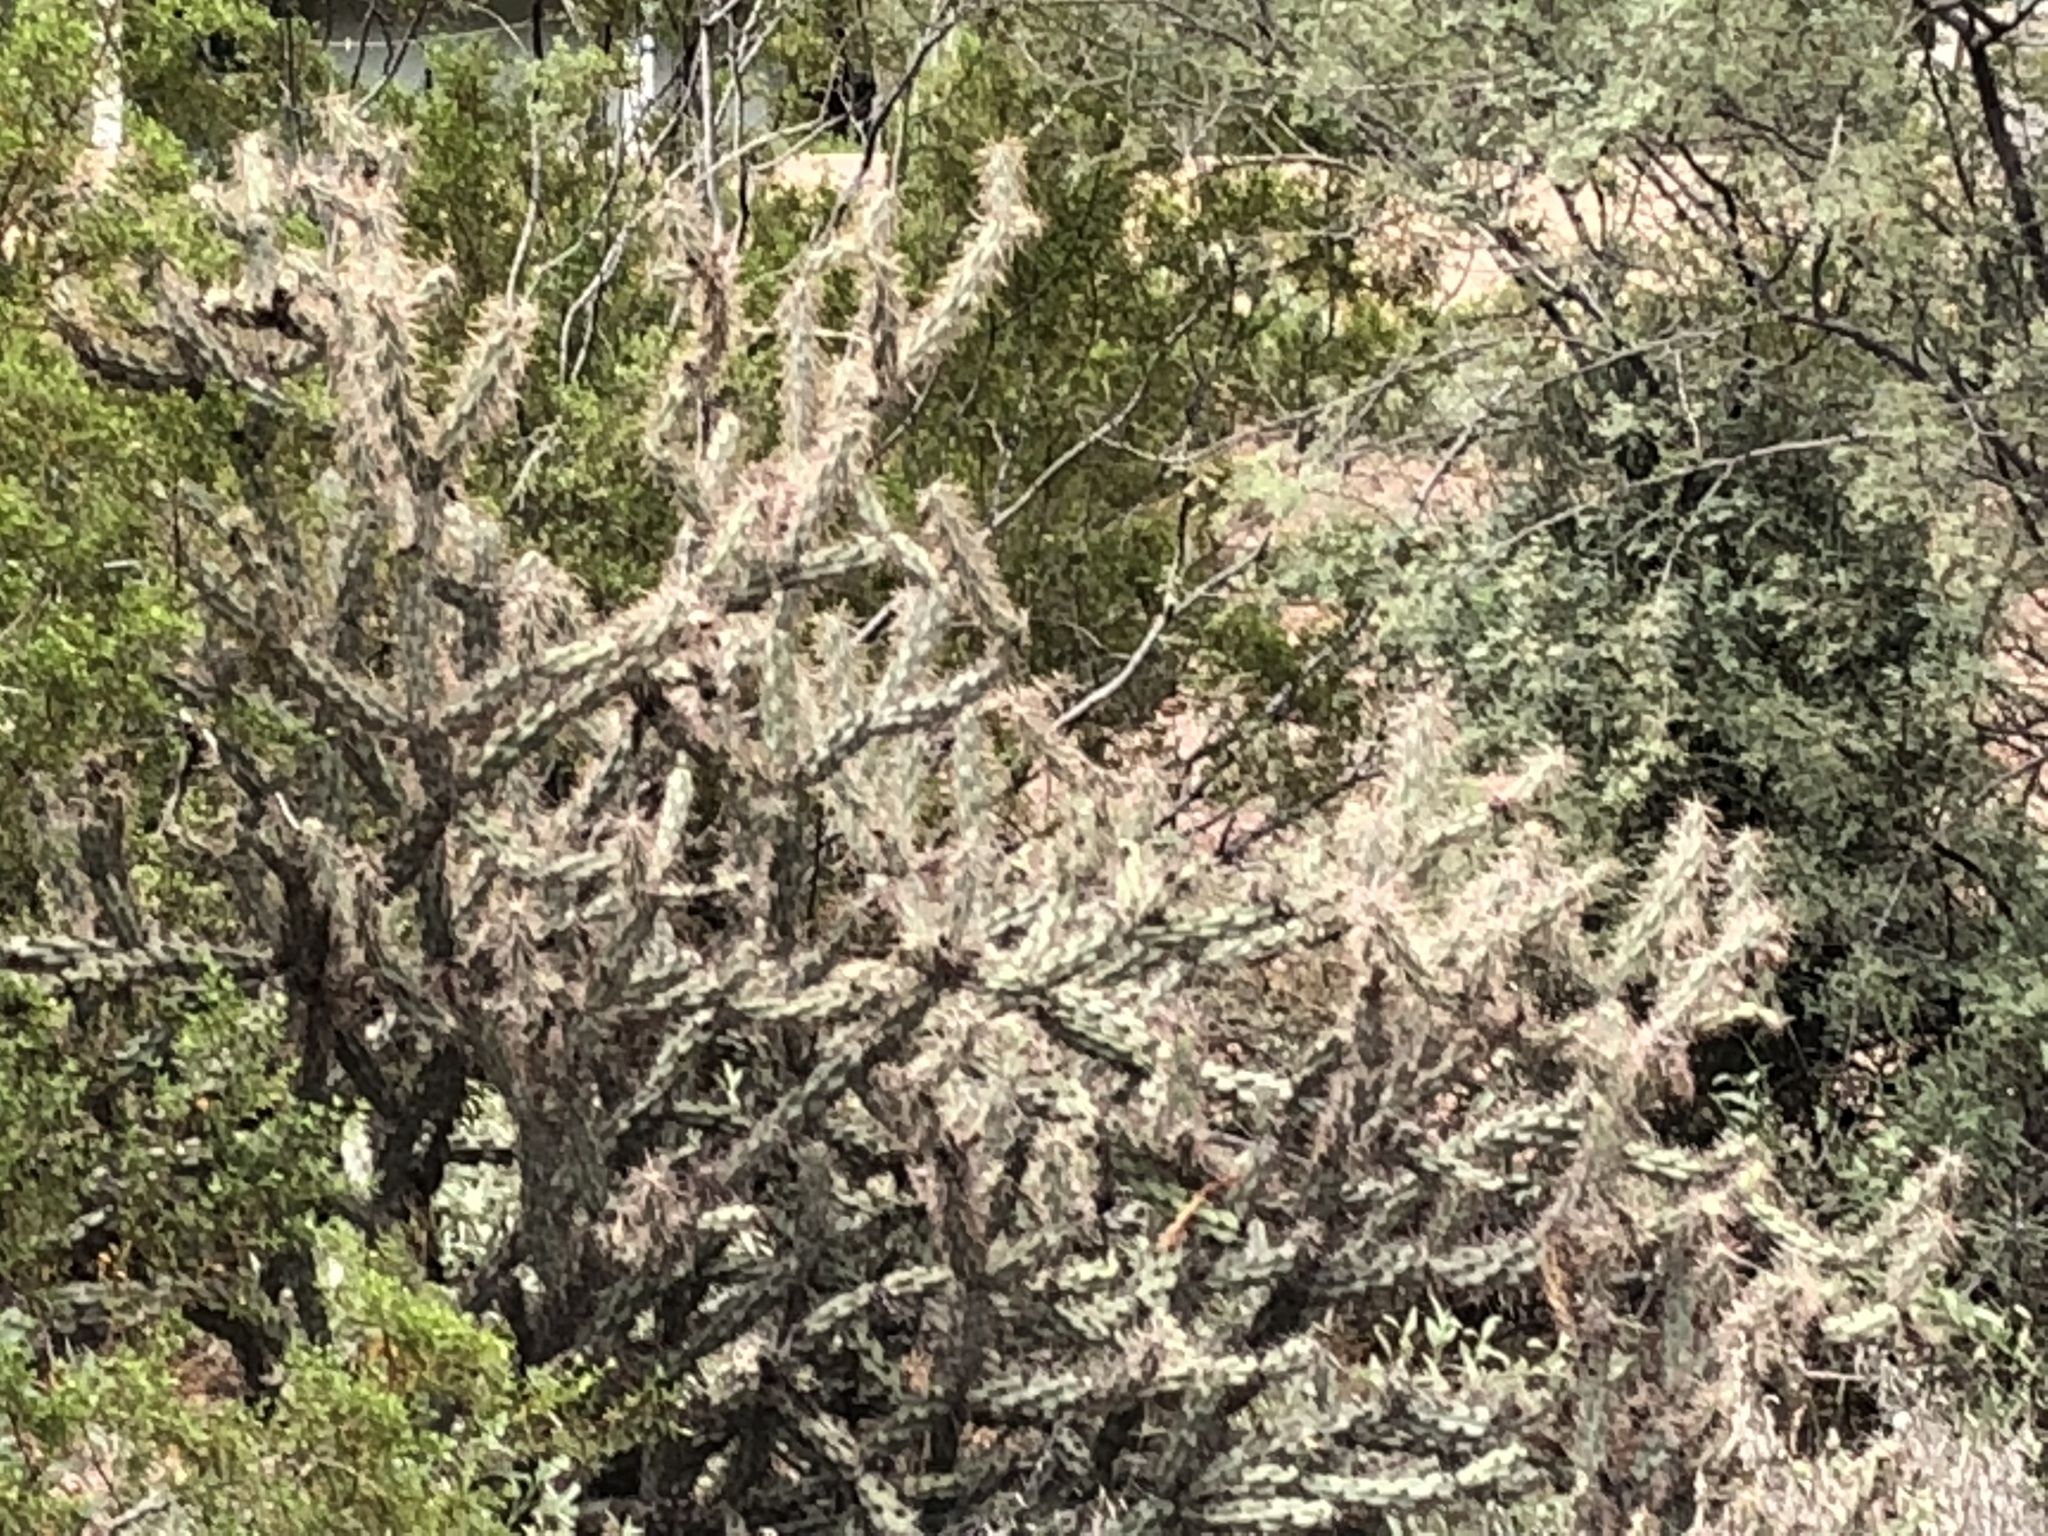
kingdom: Plantae
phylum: Tracheophyta
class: Magnoliopsida
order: Caryophyllales
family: Cactaceae
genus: Cylindropuntia
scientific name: Cylindropuntia acanthocarpa
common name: Buckhorn cholla
